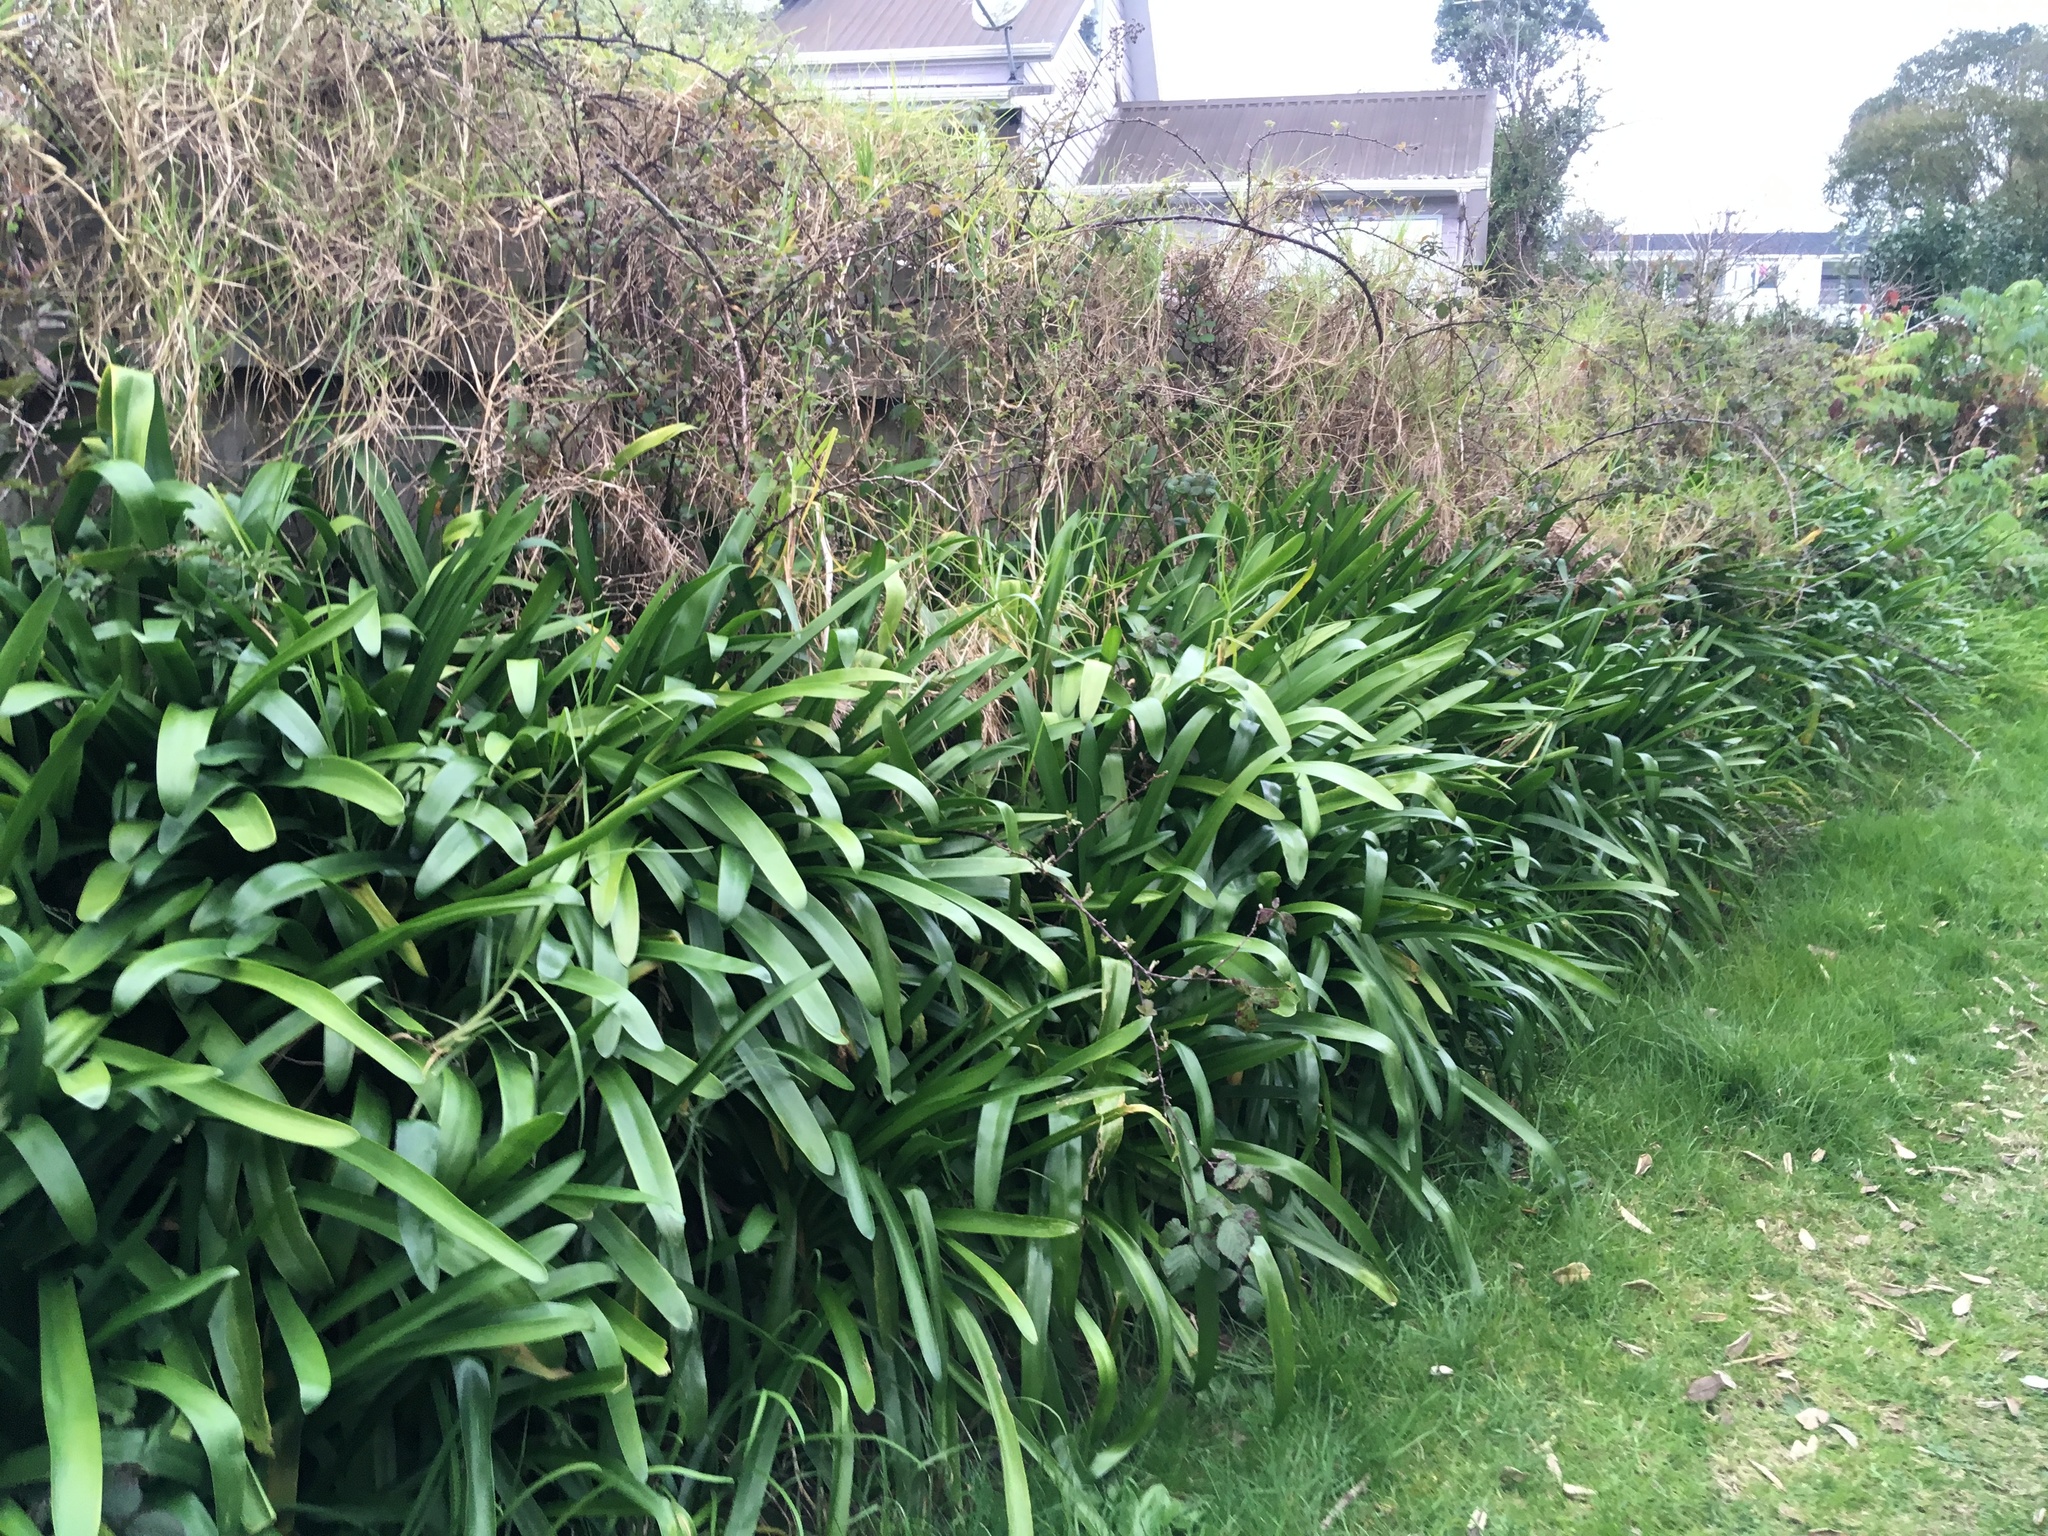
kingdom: Plantae
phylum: Tracheophyta
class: Liliopsida
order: Poales
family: Poaceae
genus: Cenchrus
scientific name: Cenchrus clandestinus
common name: Kikuyugrass
